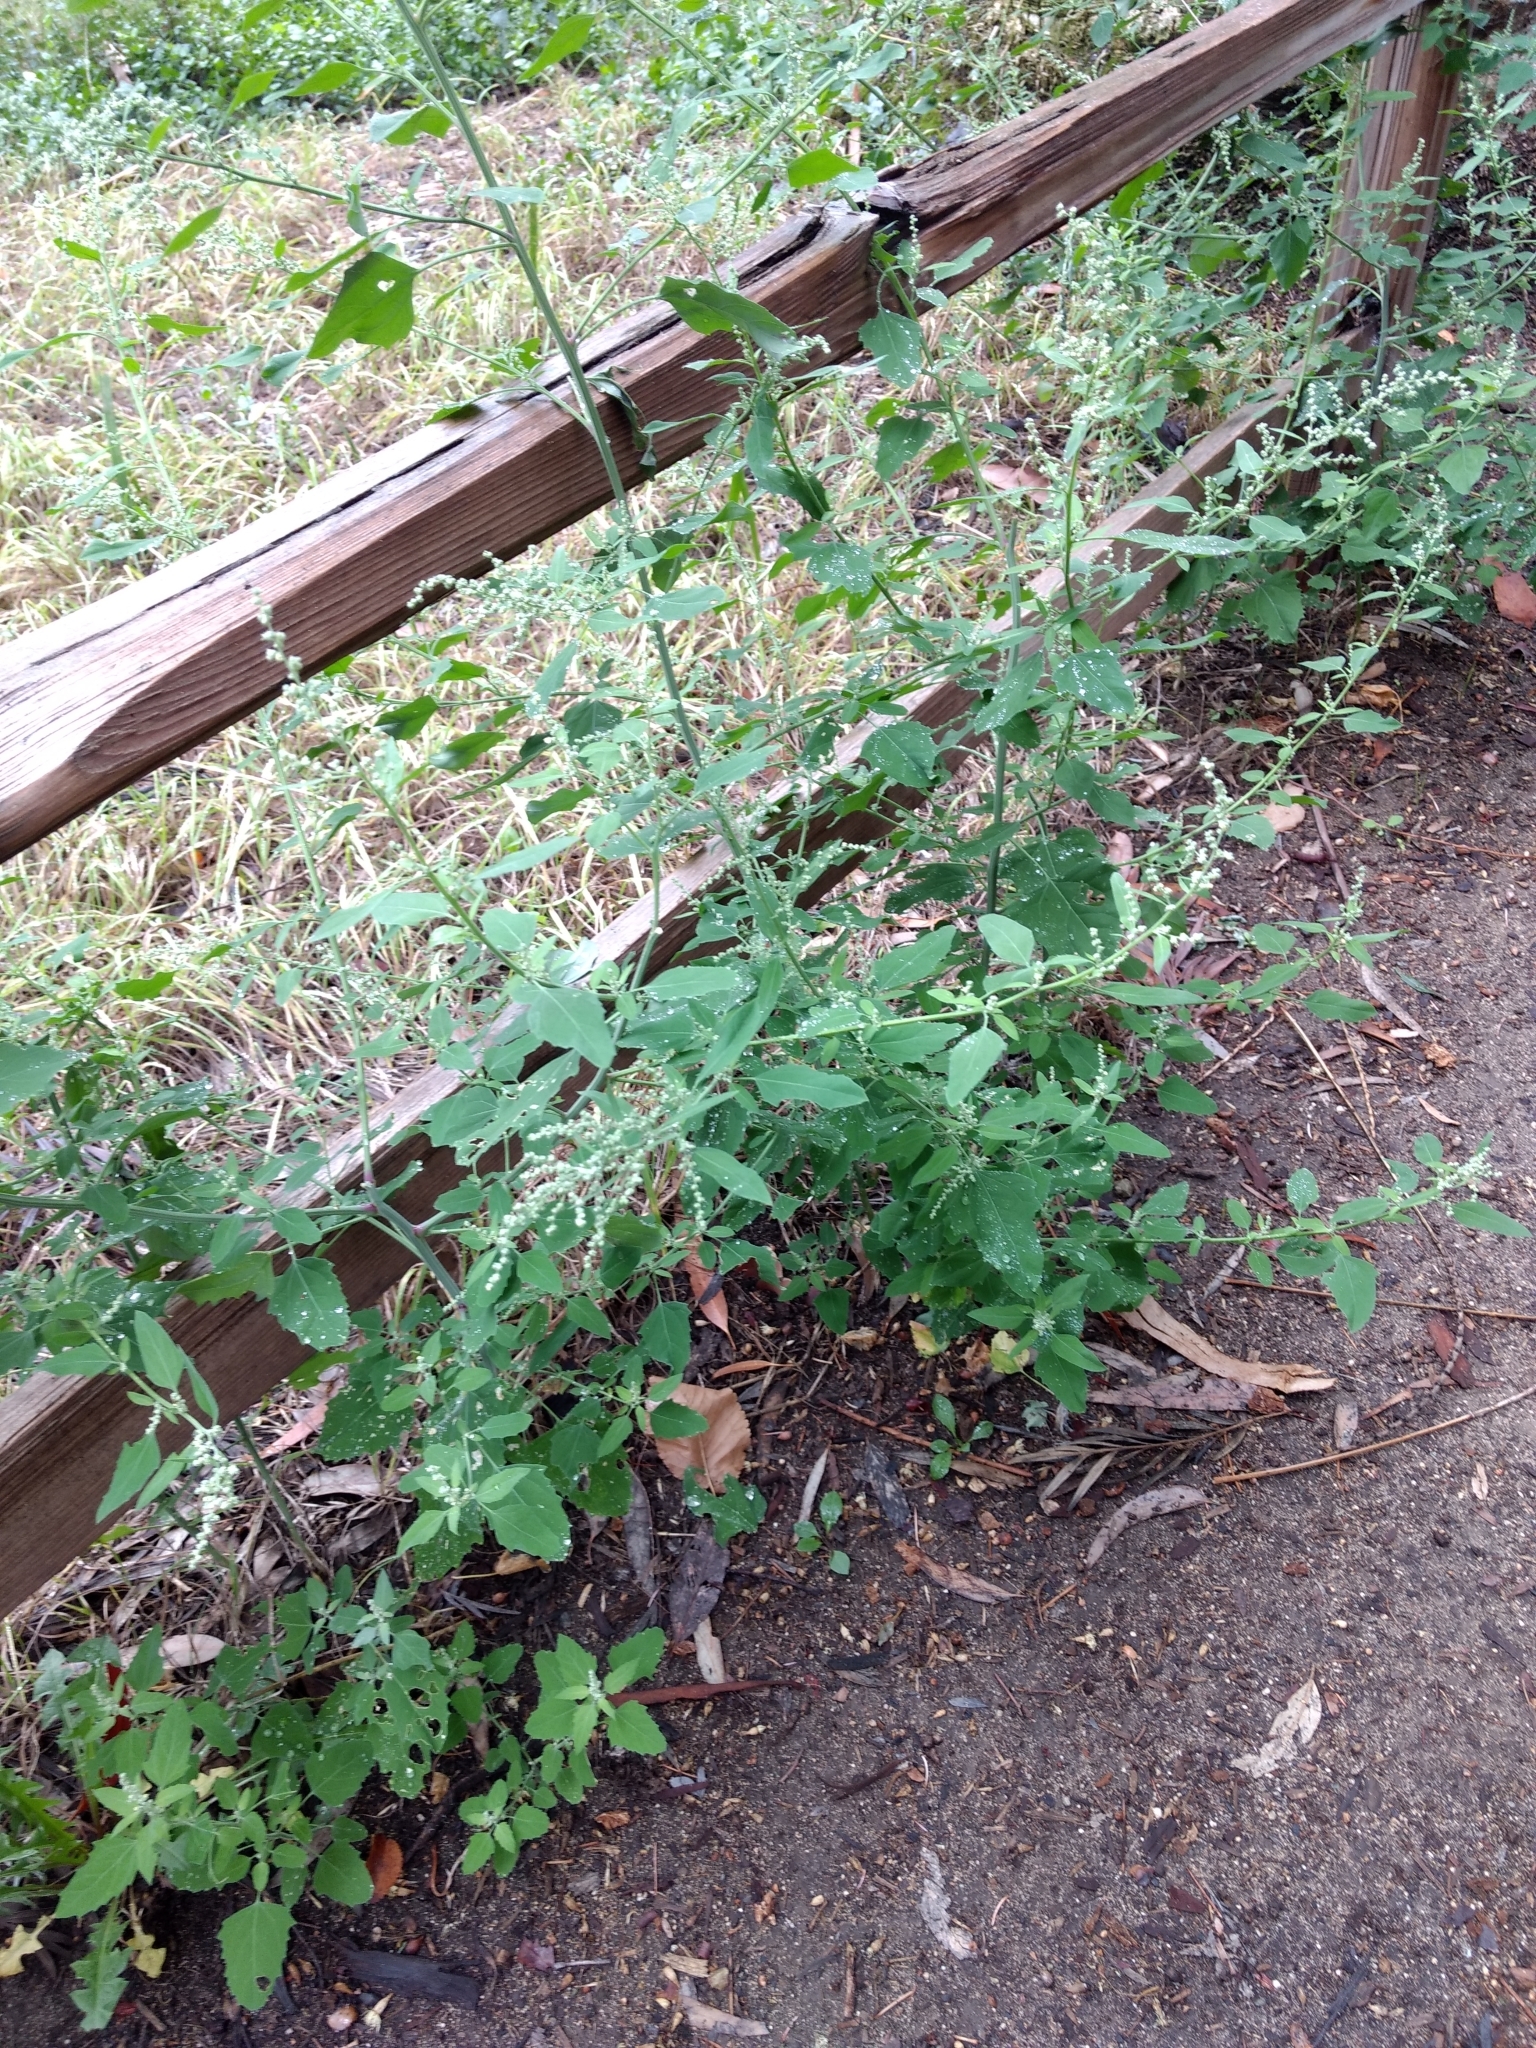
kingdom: Plantae
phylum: Tracheophyta
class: Magnoliopsida
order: Caryophyllales
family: Amaranthaceae
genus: Chenopodium
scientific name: Chenopodium album
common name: Fat-hen
